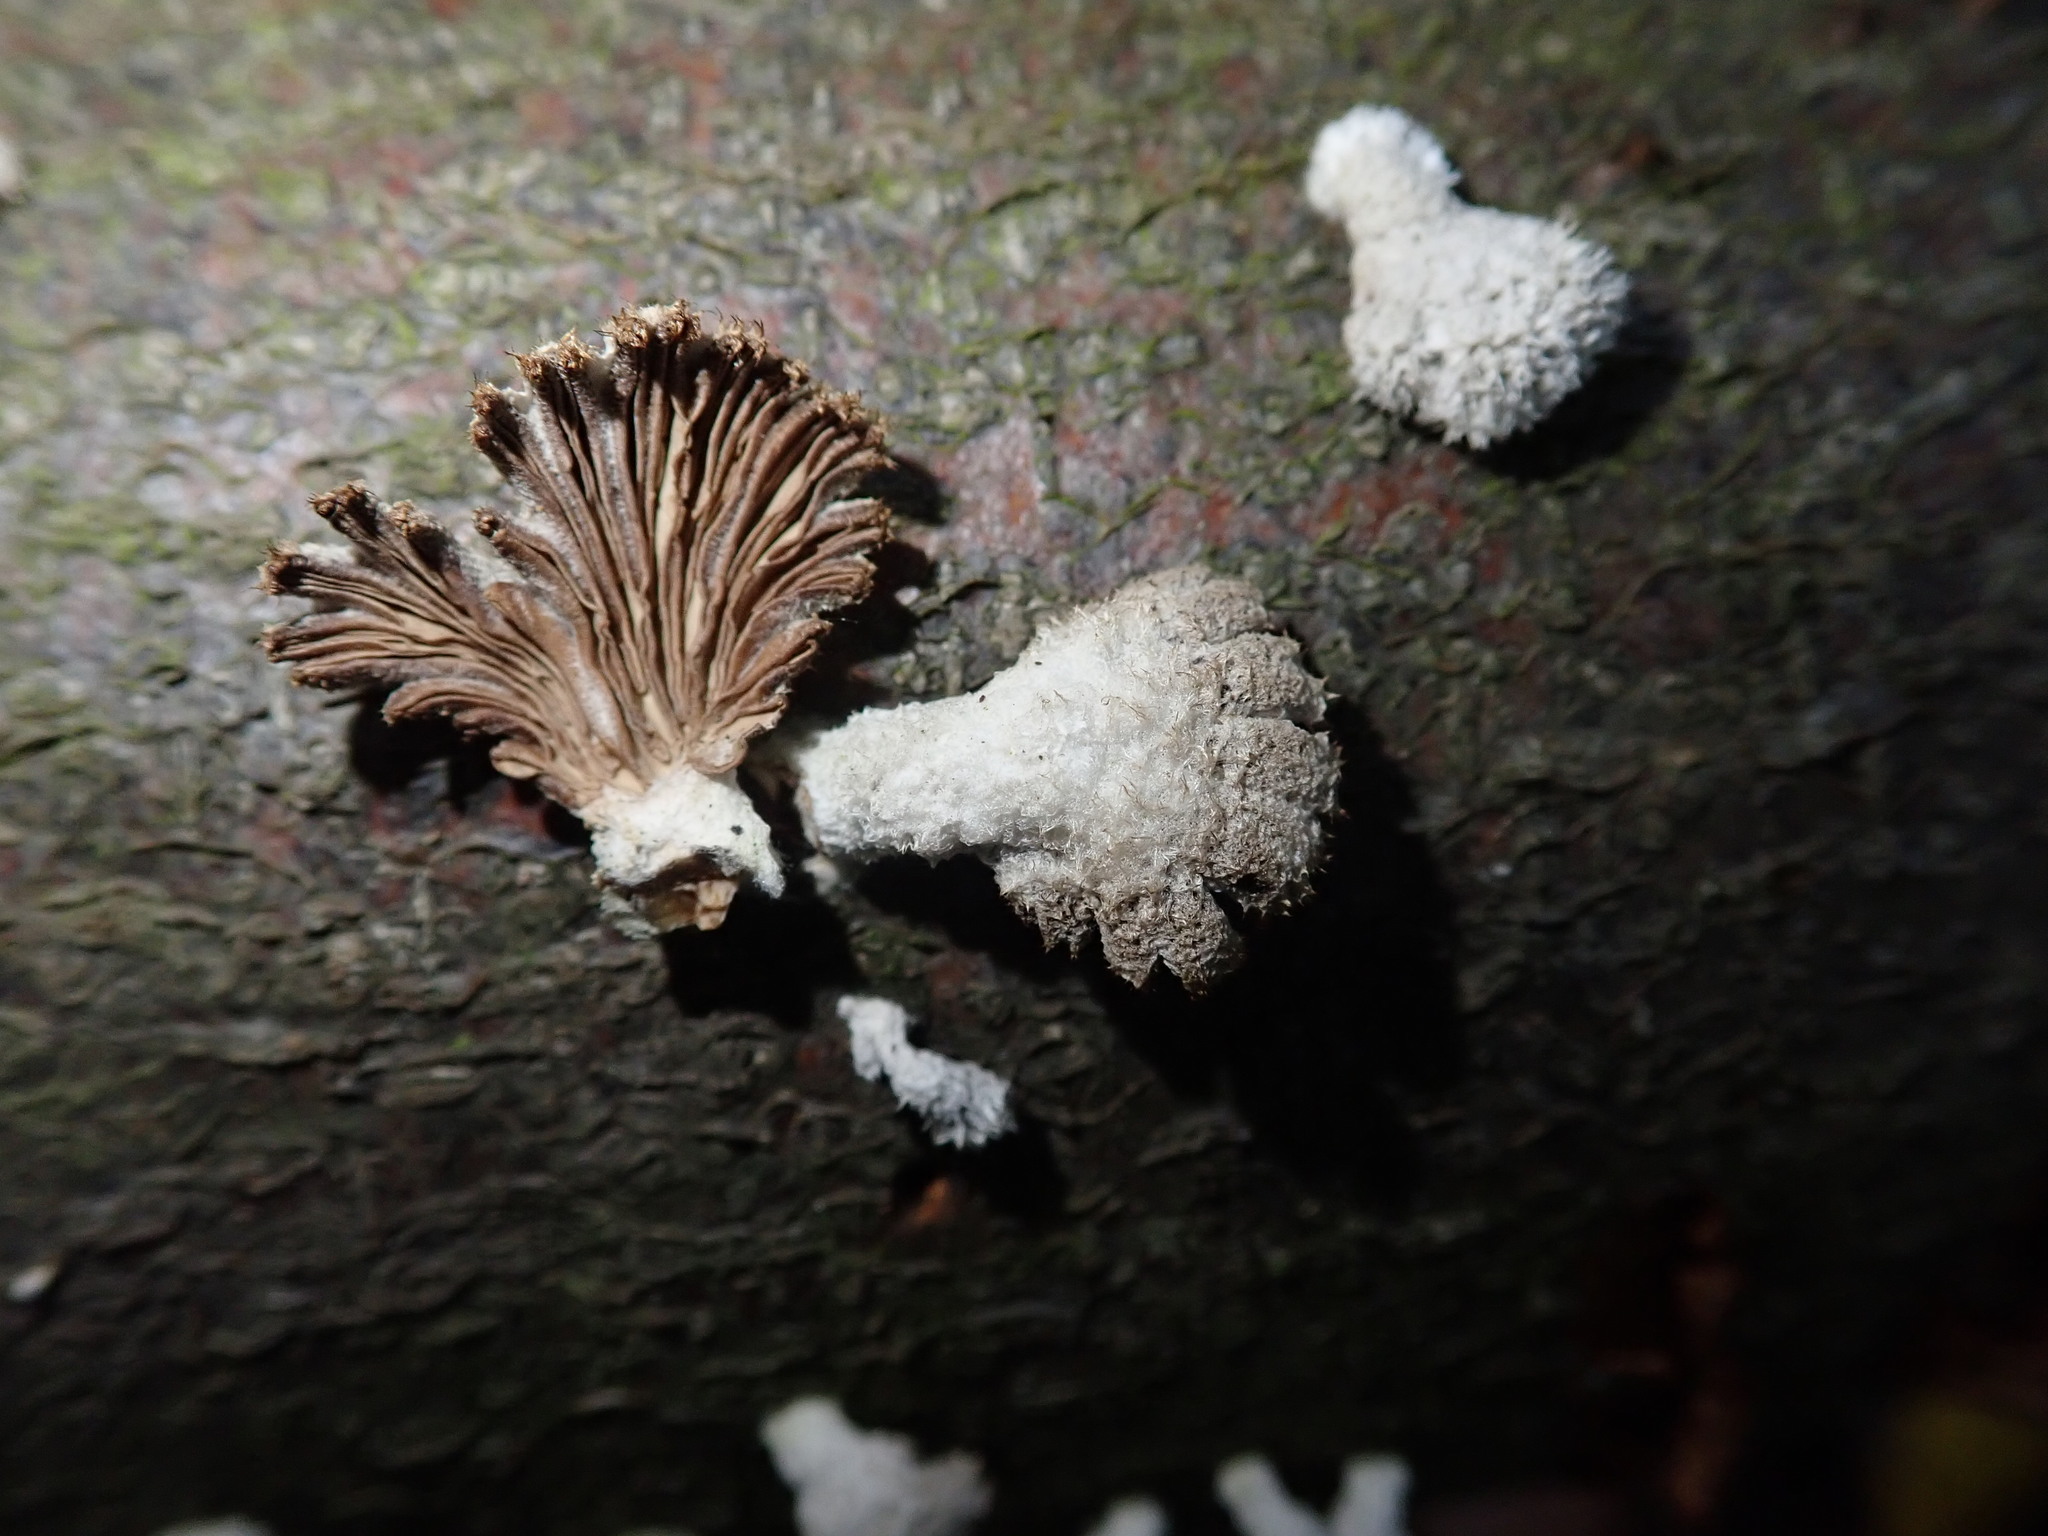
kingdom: Fungi
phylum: Basidiomycota
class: Agaricomycetes
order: Agaricales
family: Schizophyllaceae
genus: Schizophyllum
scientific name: Schizophyllum commune
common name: Common porecrust
